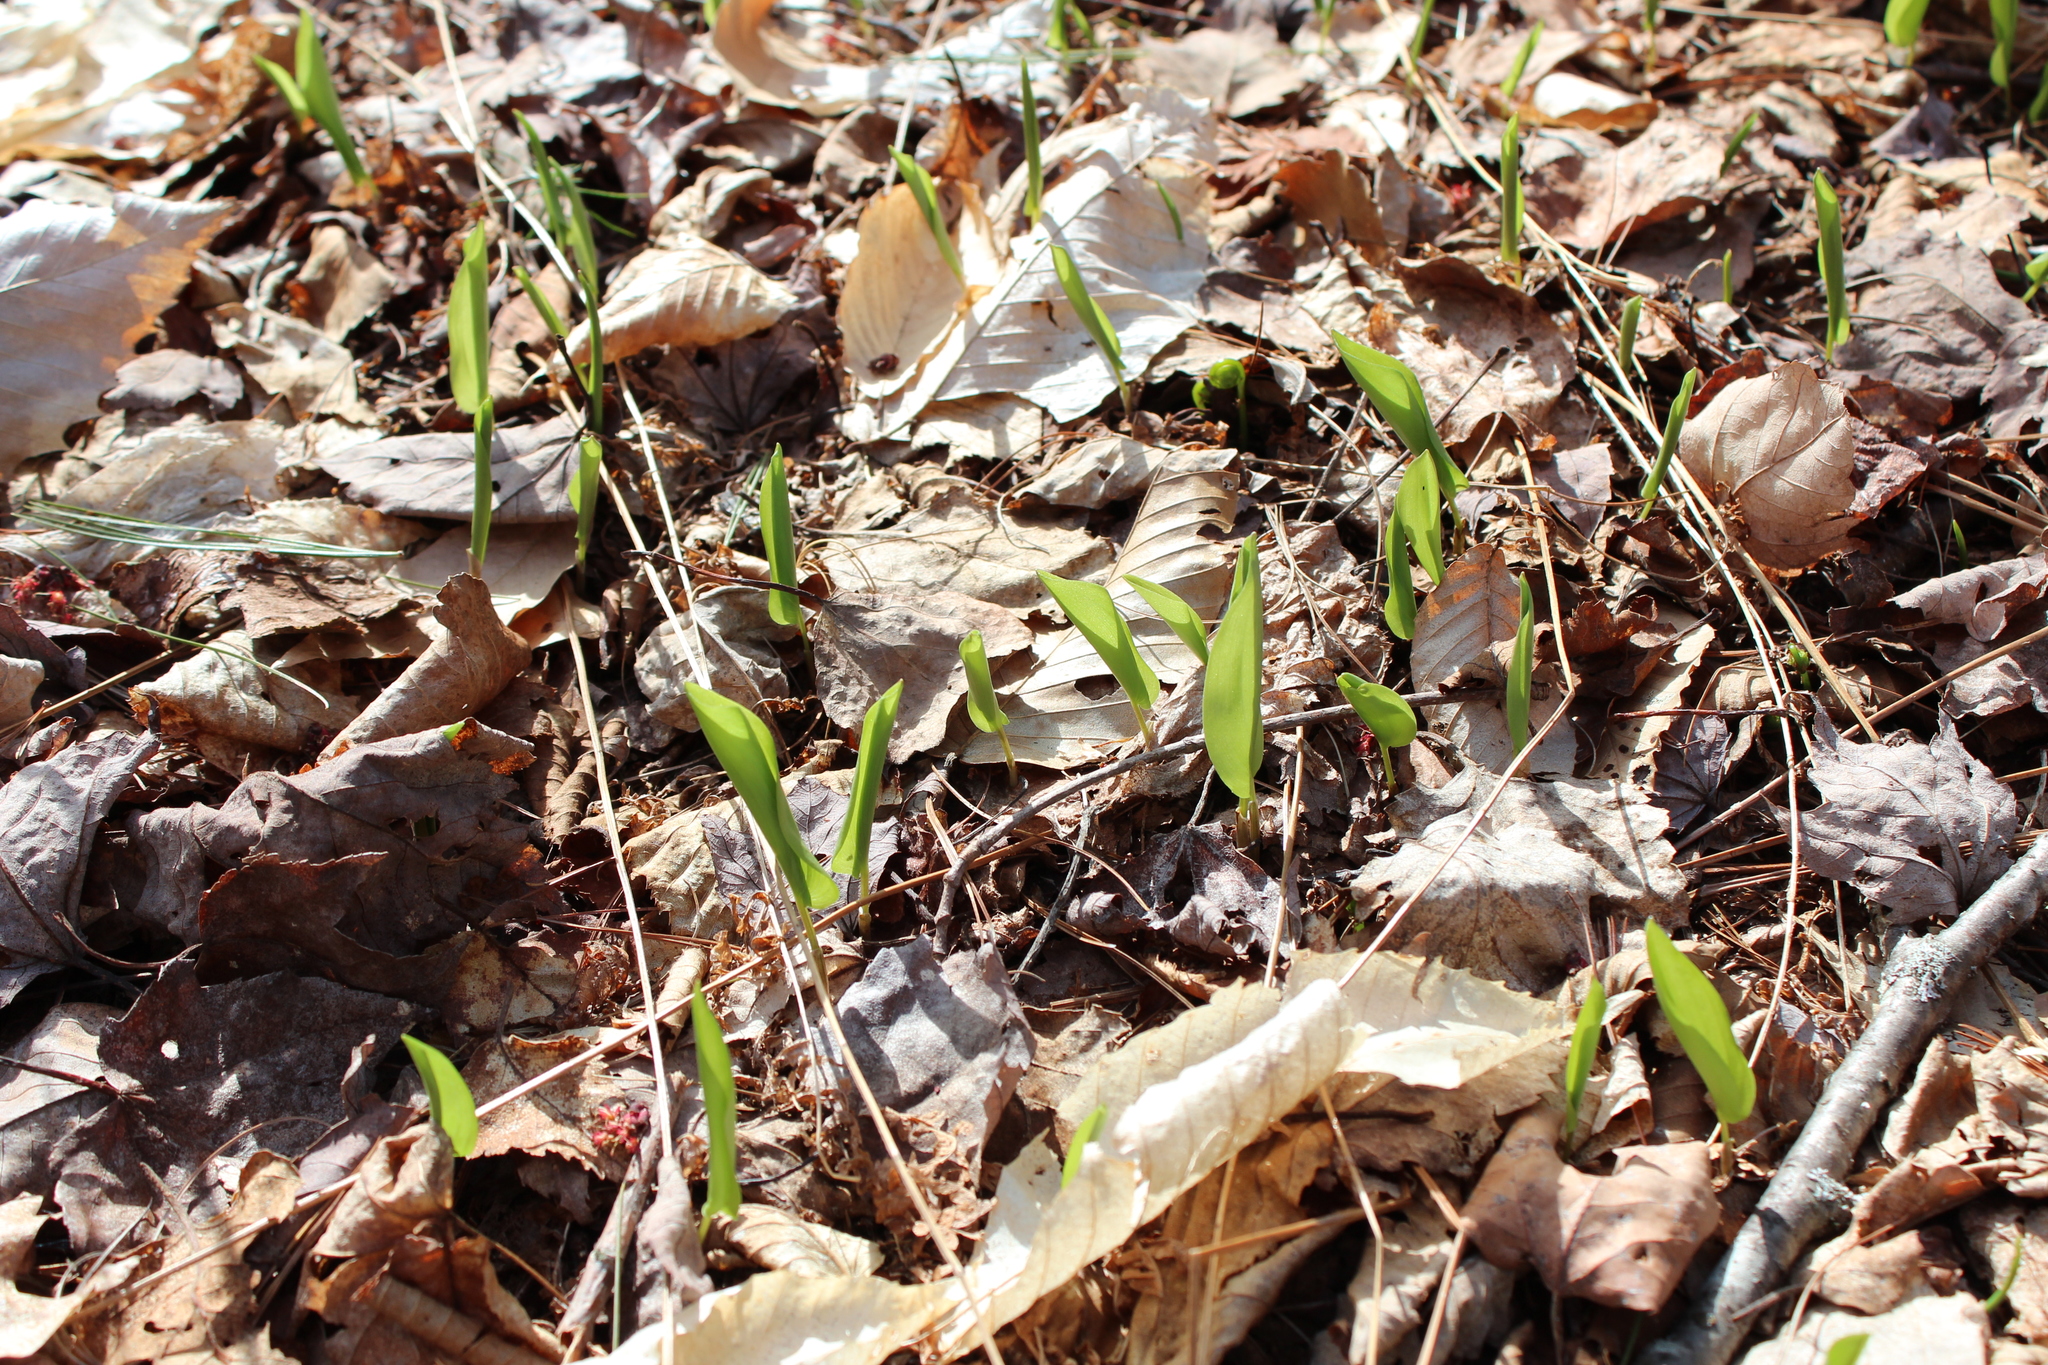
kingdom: Plantae
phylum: Tracheophyta
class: Liliopsida
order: Asparagales
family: Asparagaceae
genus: Maianthemum
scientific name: Maianthemum canadense
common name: False lily-of-the-valley
